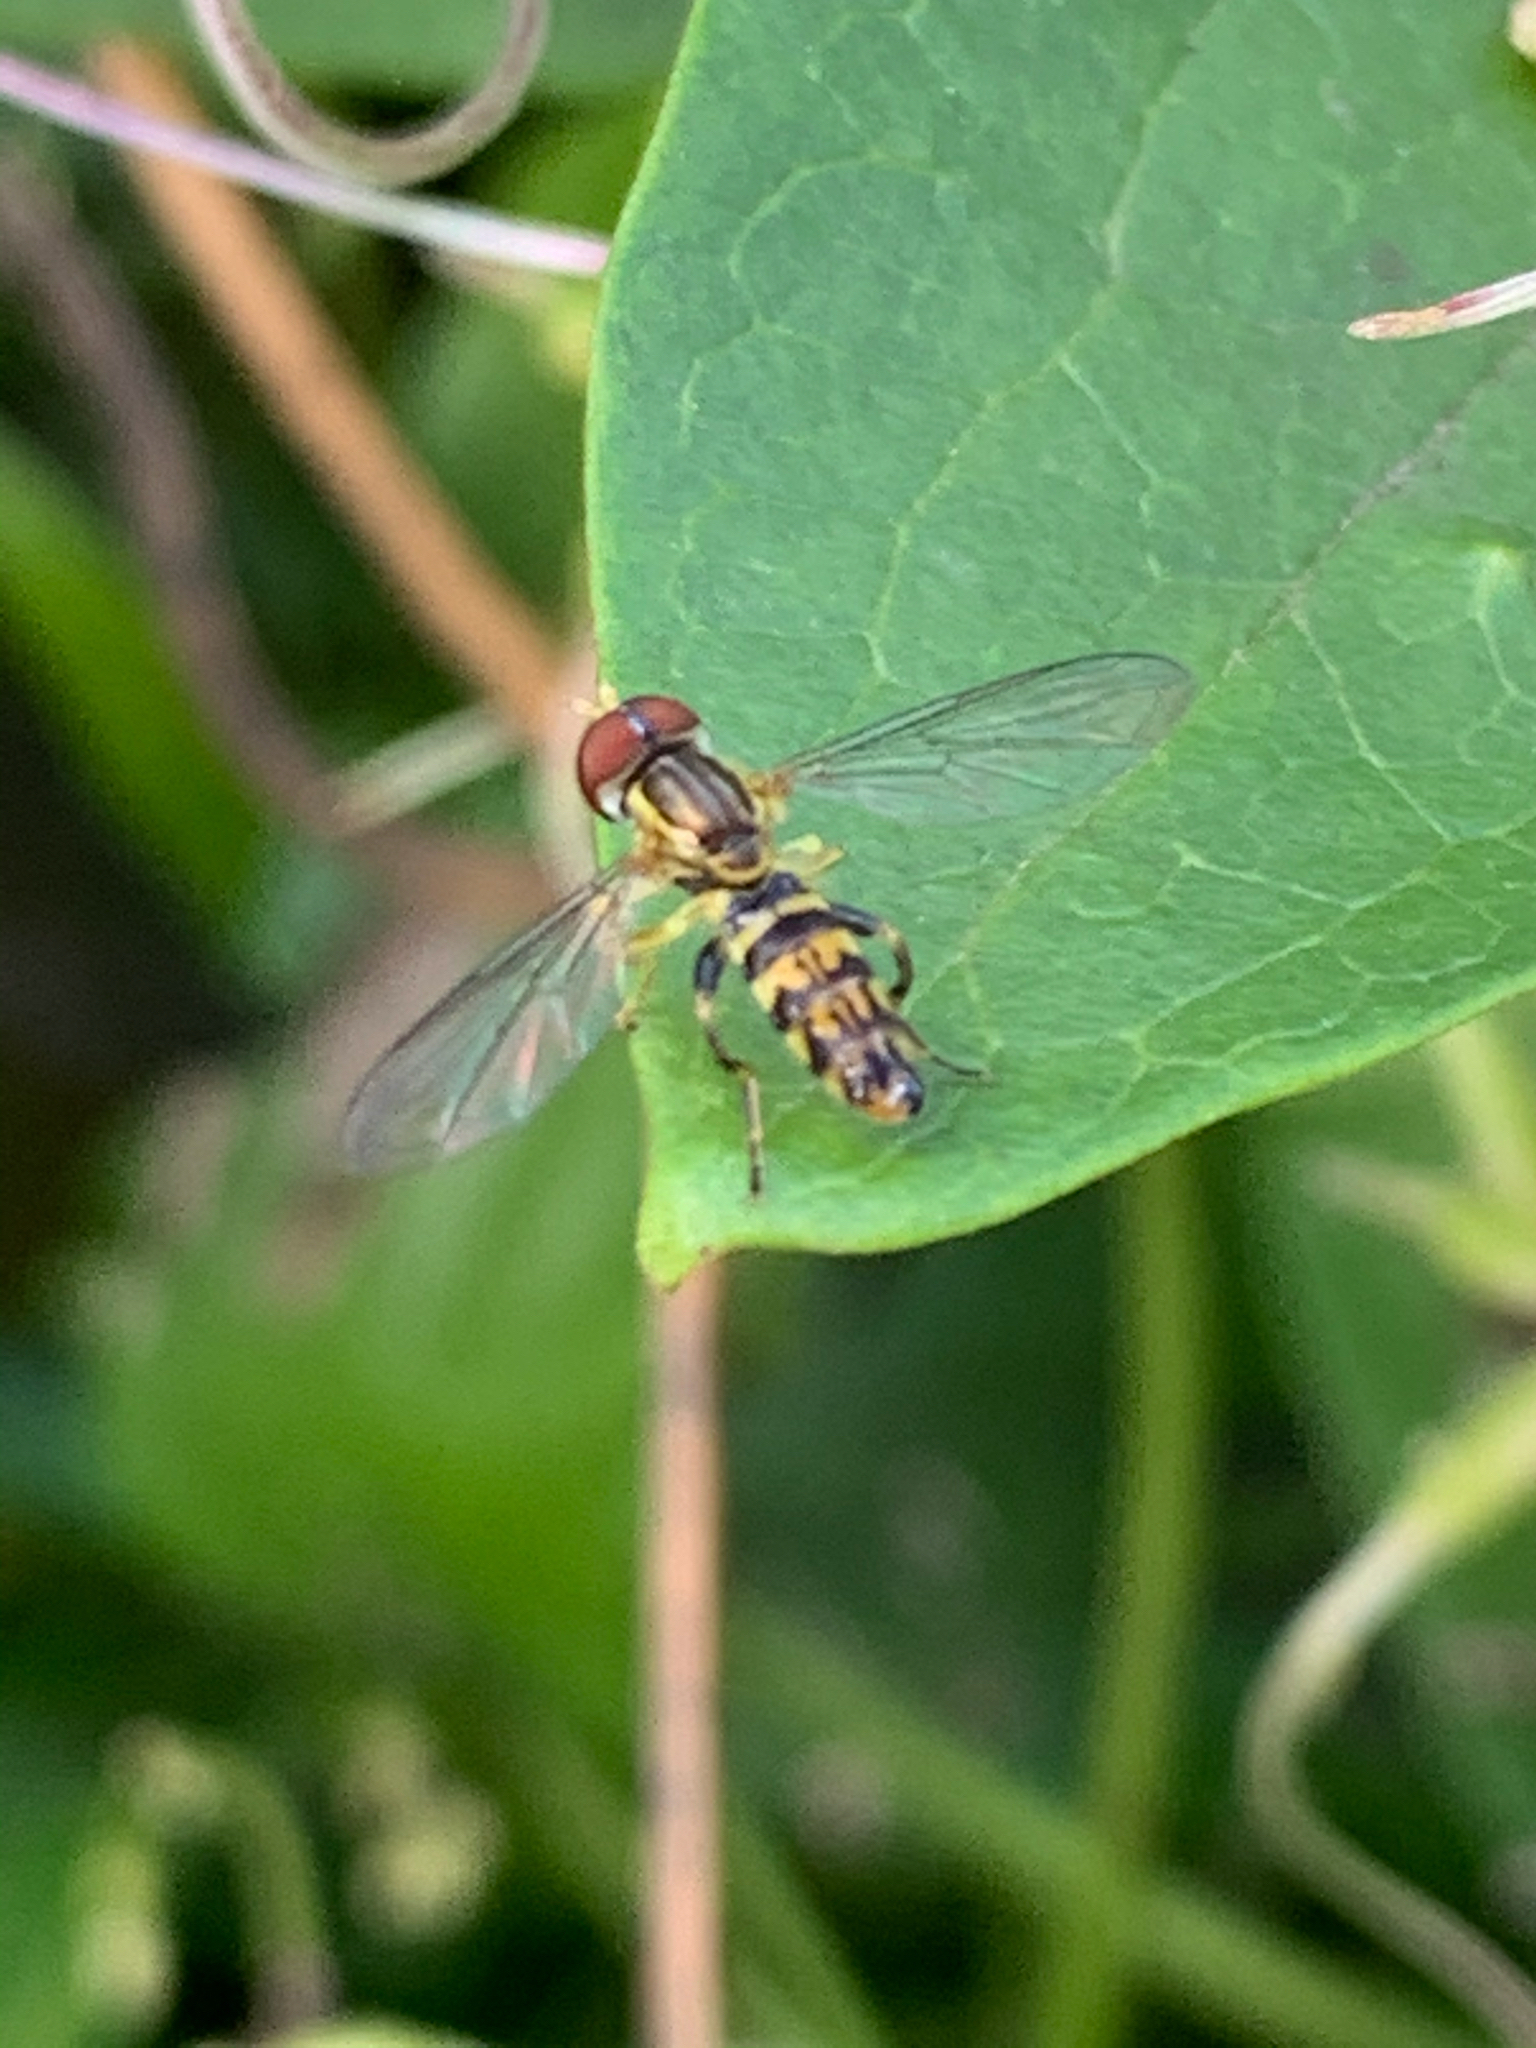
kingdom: Animalia
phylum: Arthropoda
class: Insecta
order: Diptera
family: Syrphidae
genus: Toxomerus
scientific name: Toxomerus geminatus
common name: Eastern calligrapher
